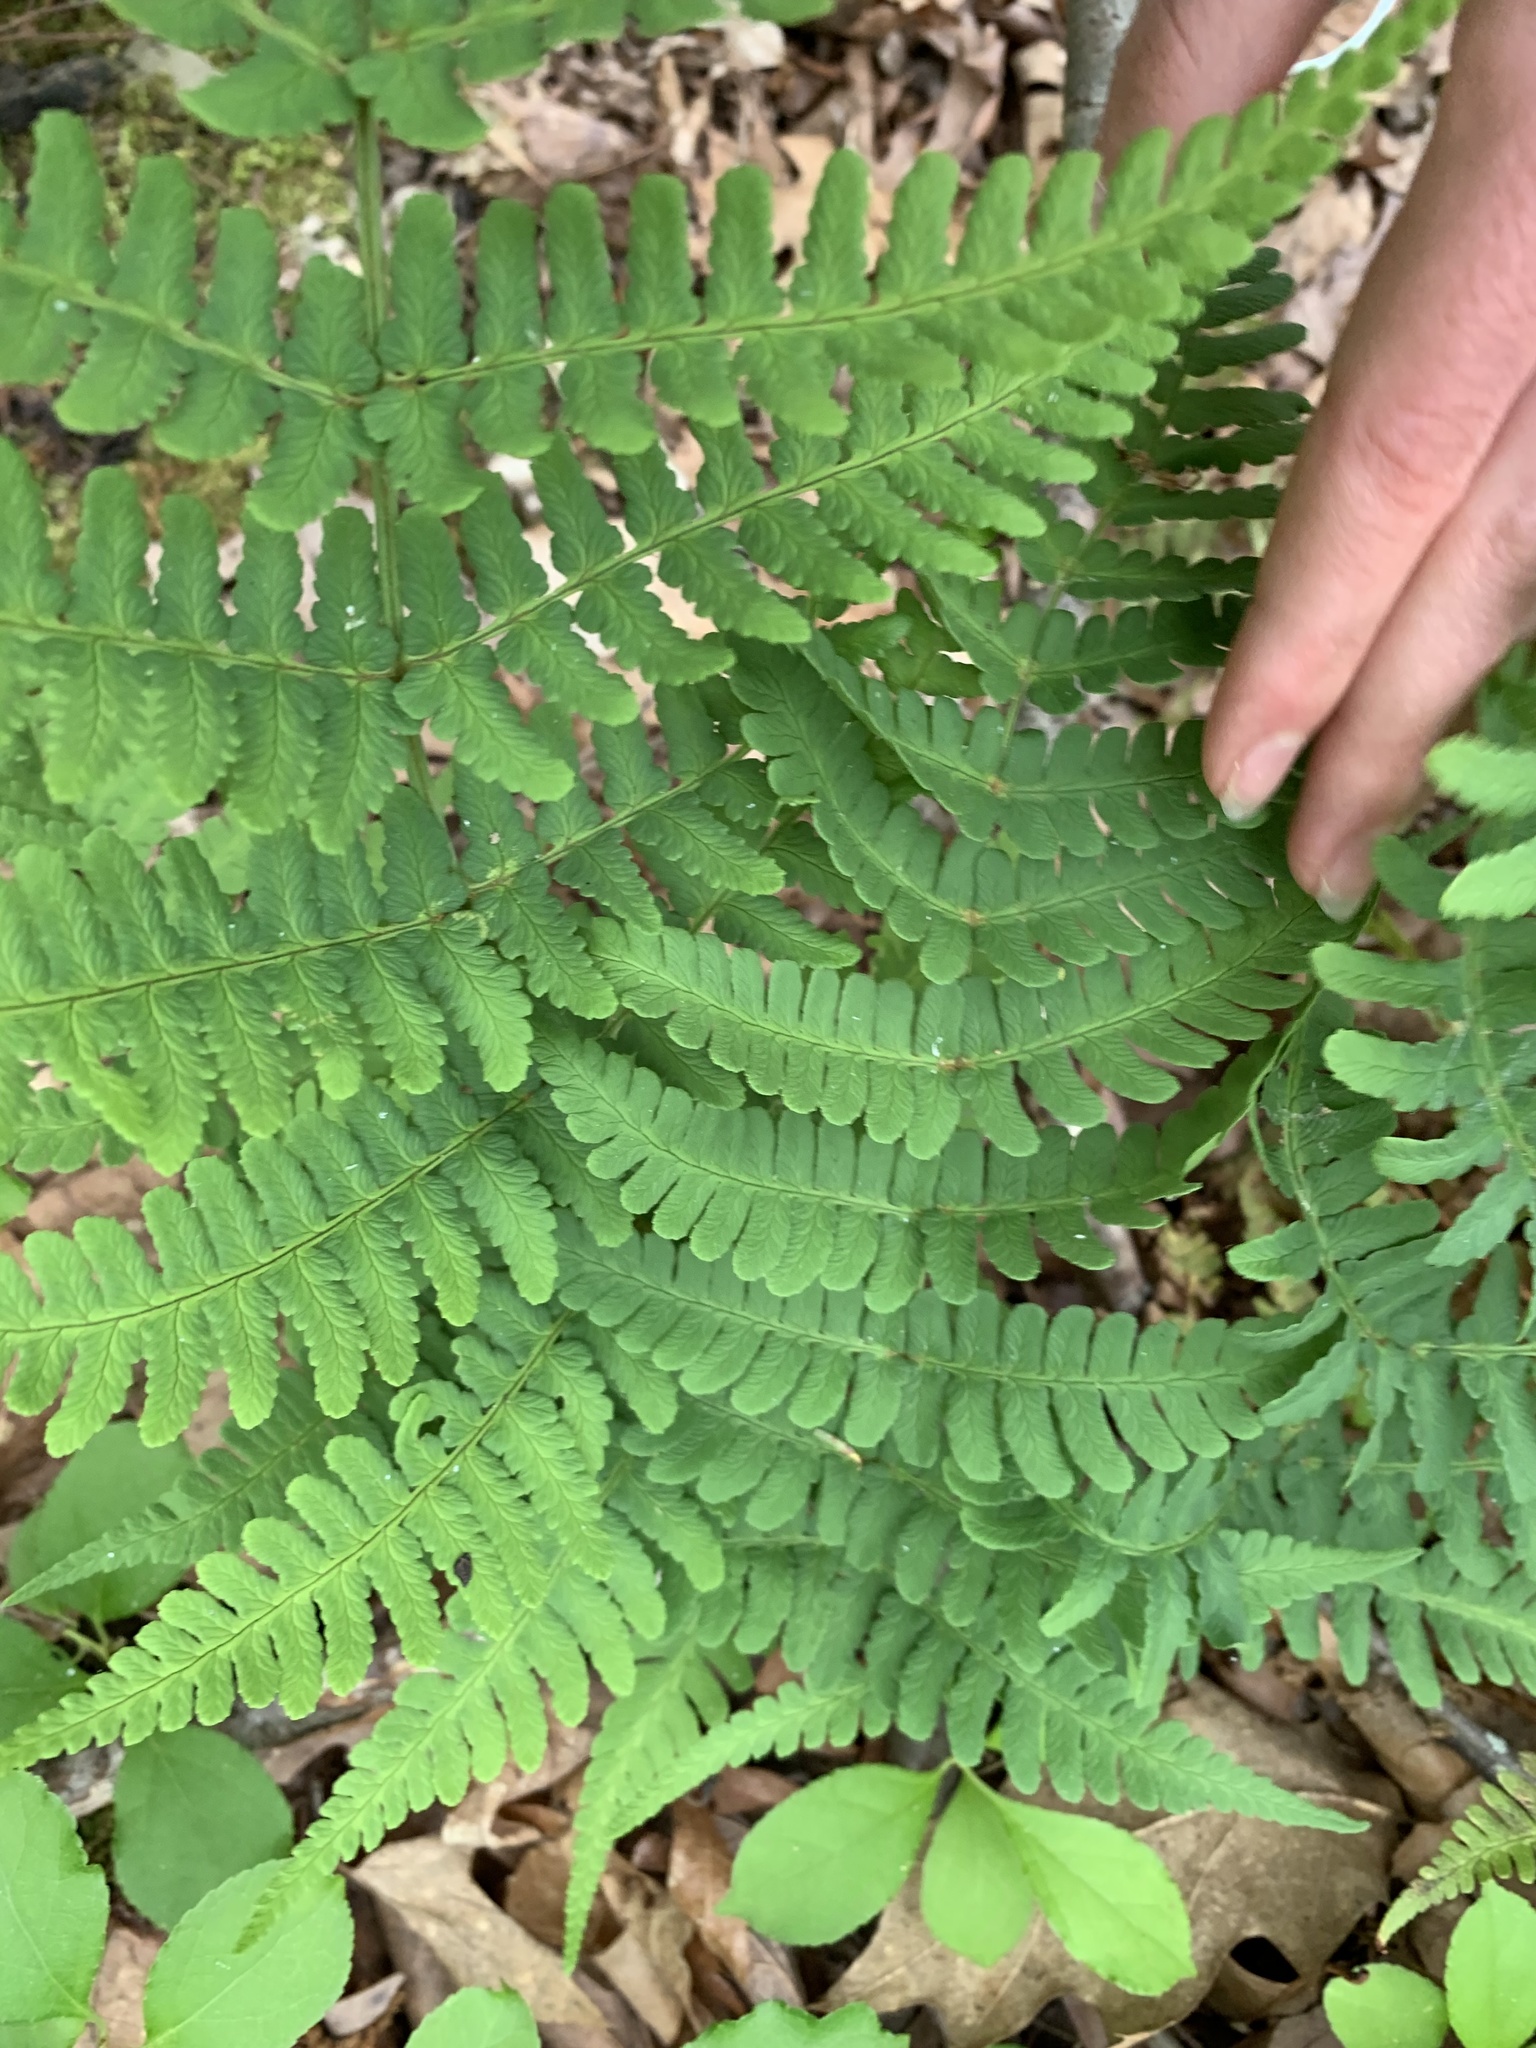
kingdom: Plantae
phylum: Tracheophyta
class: Polypodiopsida
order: Polypodiales
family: Dryopteridaceae
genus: Dryopteris
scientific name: Dryopteris marginalis
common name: Marginal wood fern
